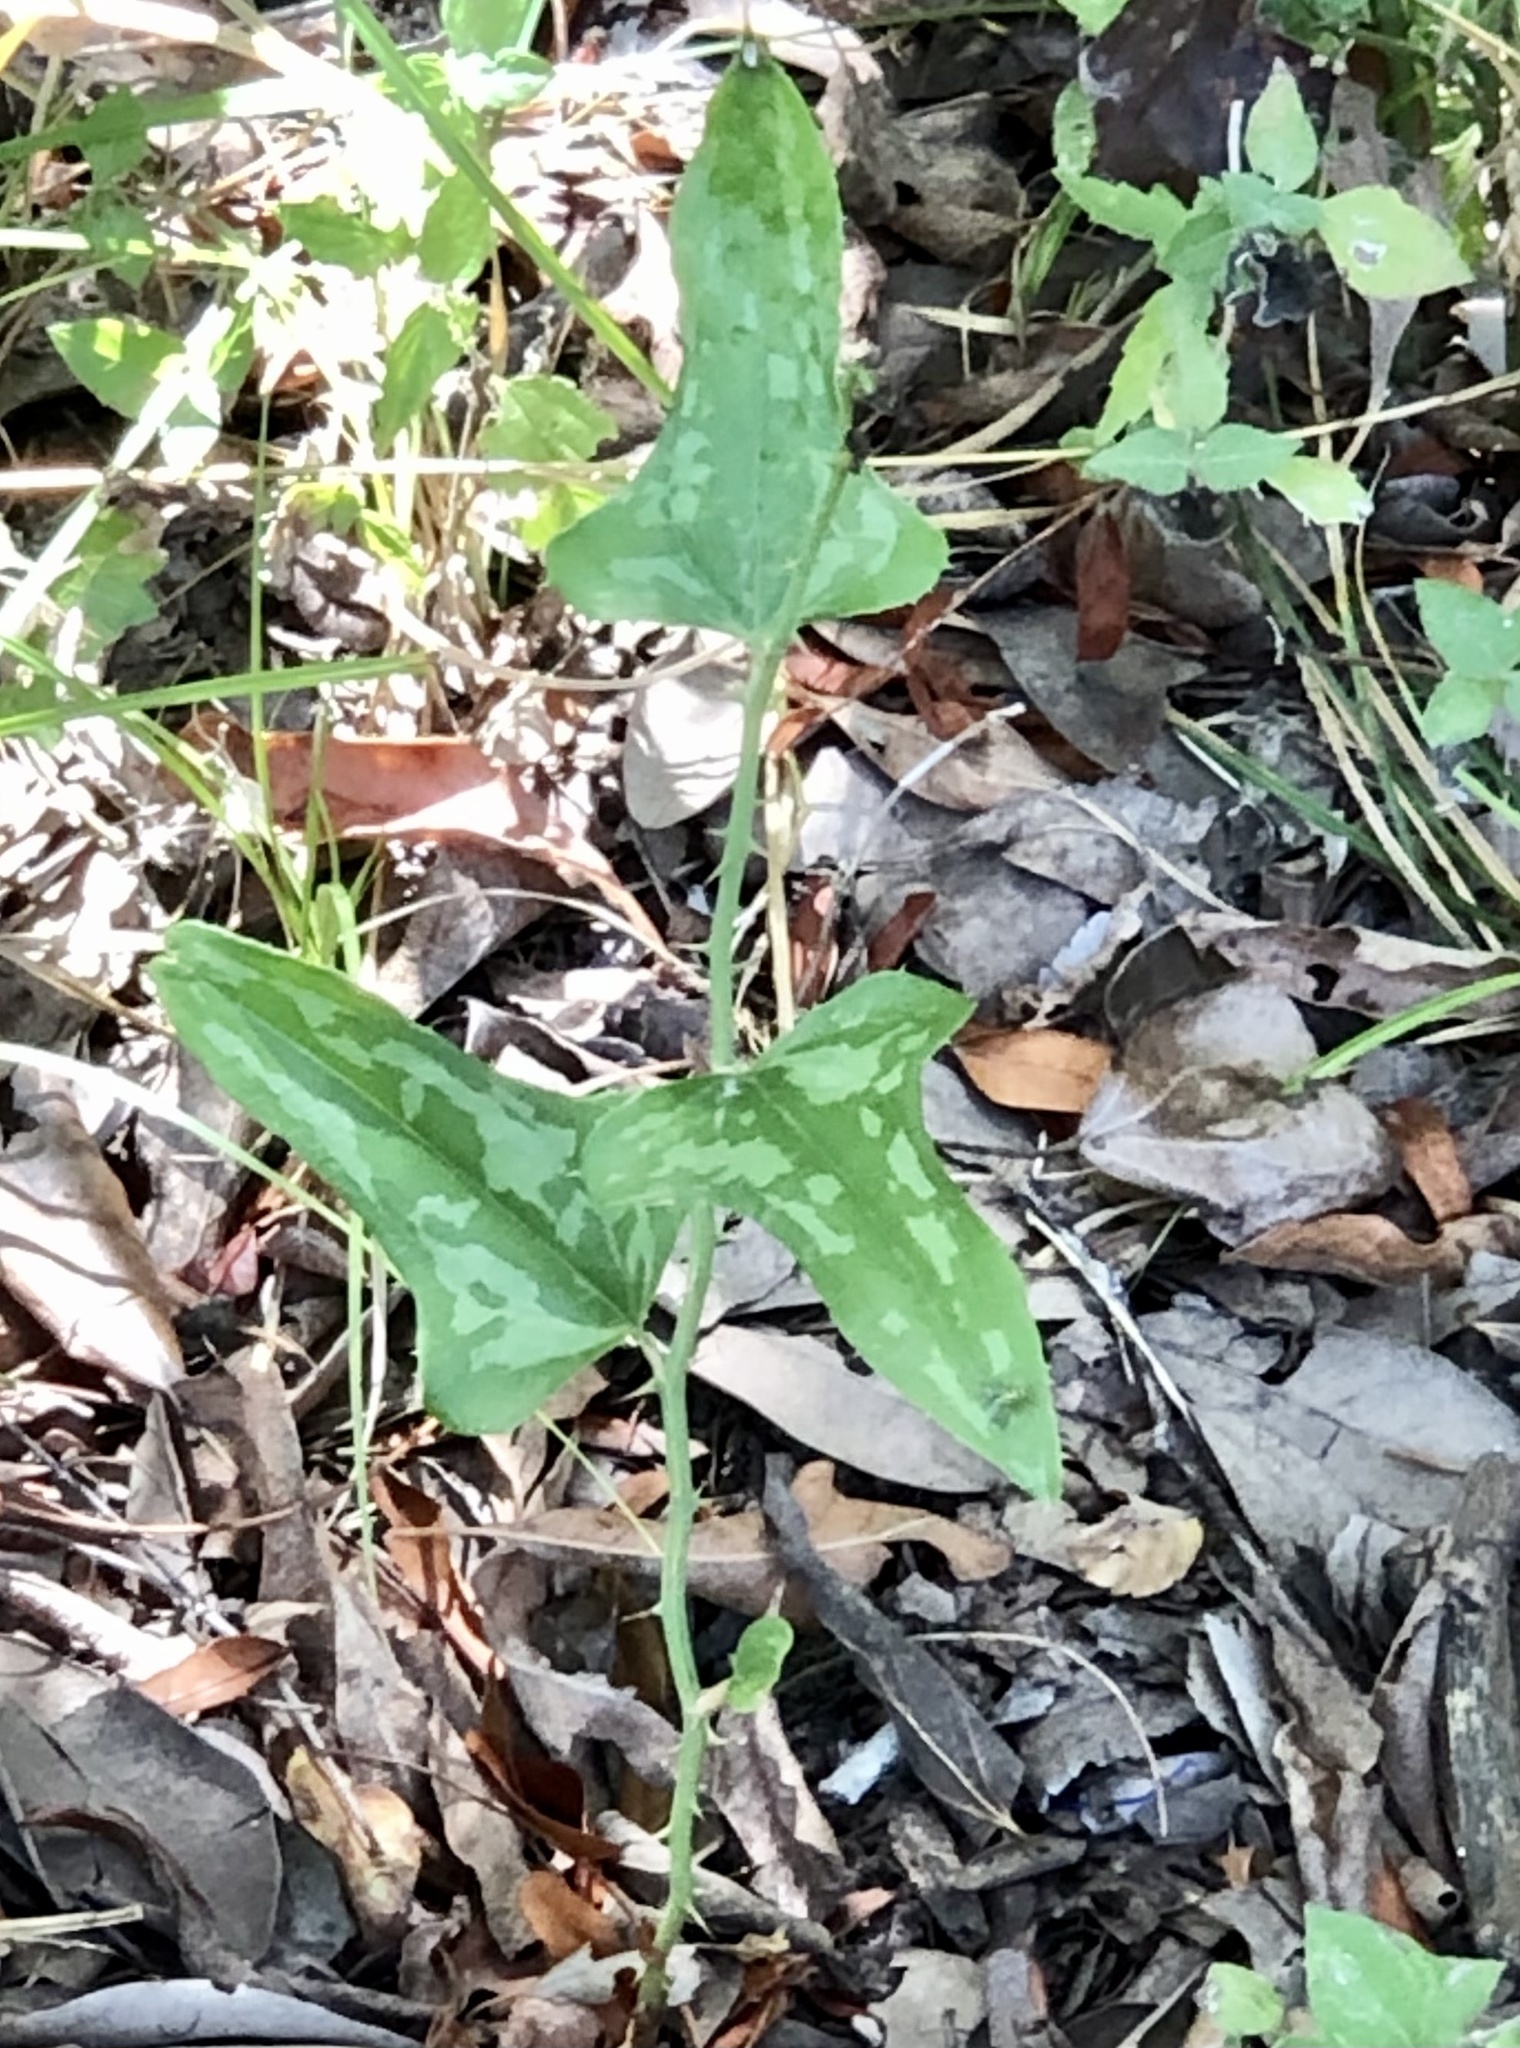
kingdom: Plantae
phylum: Tracheophyta
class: Liliopsida
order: Liliales
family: Smilacaceae
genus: Smilax
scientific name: Smilax bona-nox
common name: Catbrier
